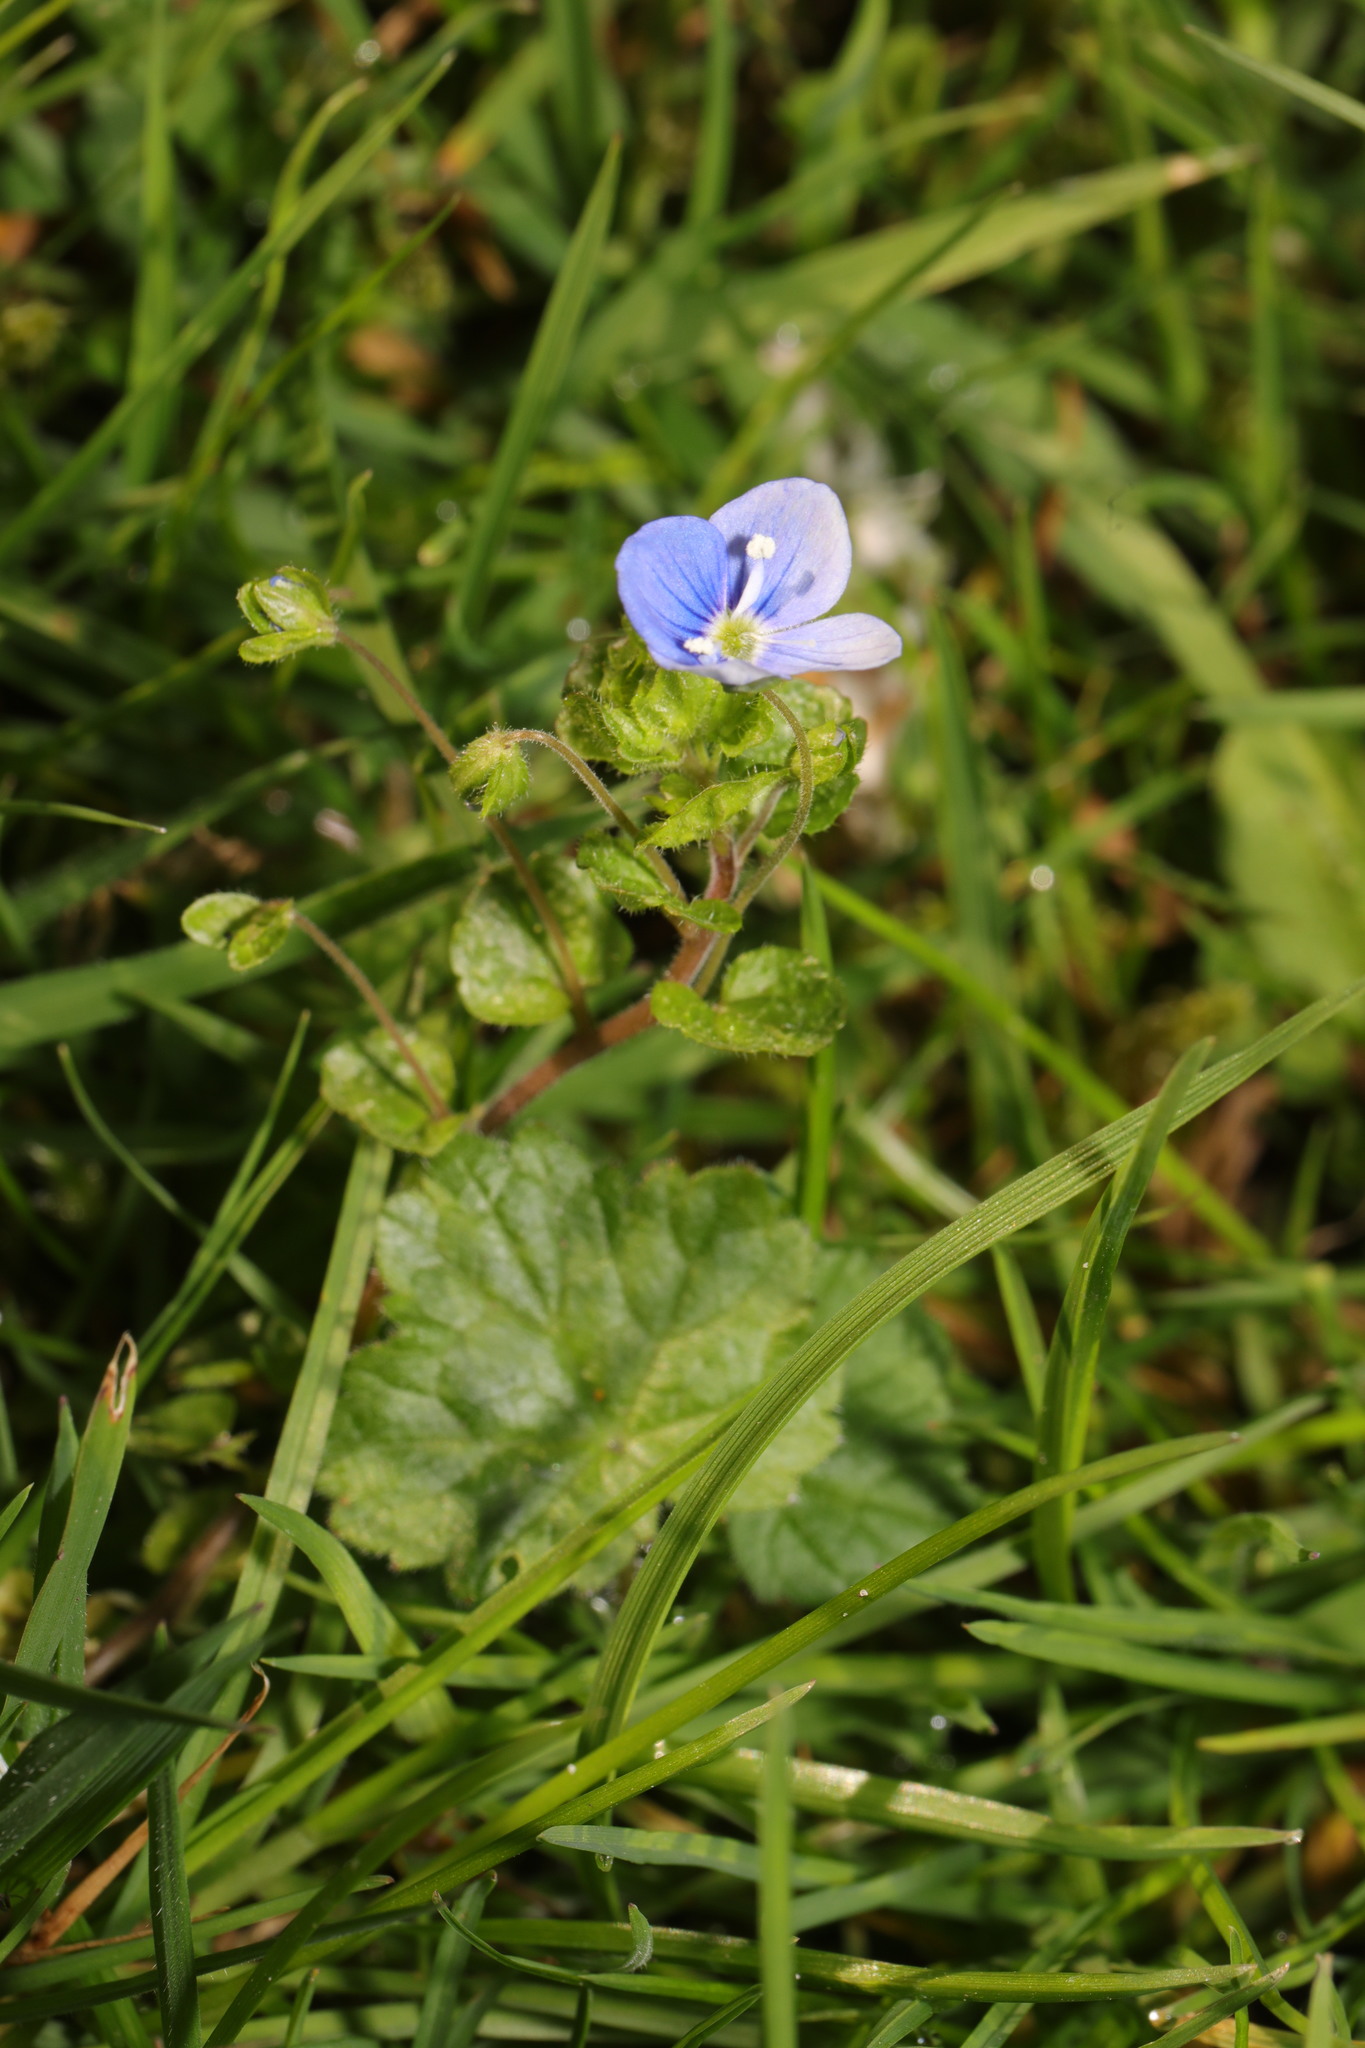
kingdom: Plantae
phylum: Tracheophyta
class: Magnoliopsida
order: Lamiales
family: Plantaginaceae
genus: Veronica
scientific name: Veronica filiformis
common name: Slender speedwell
